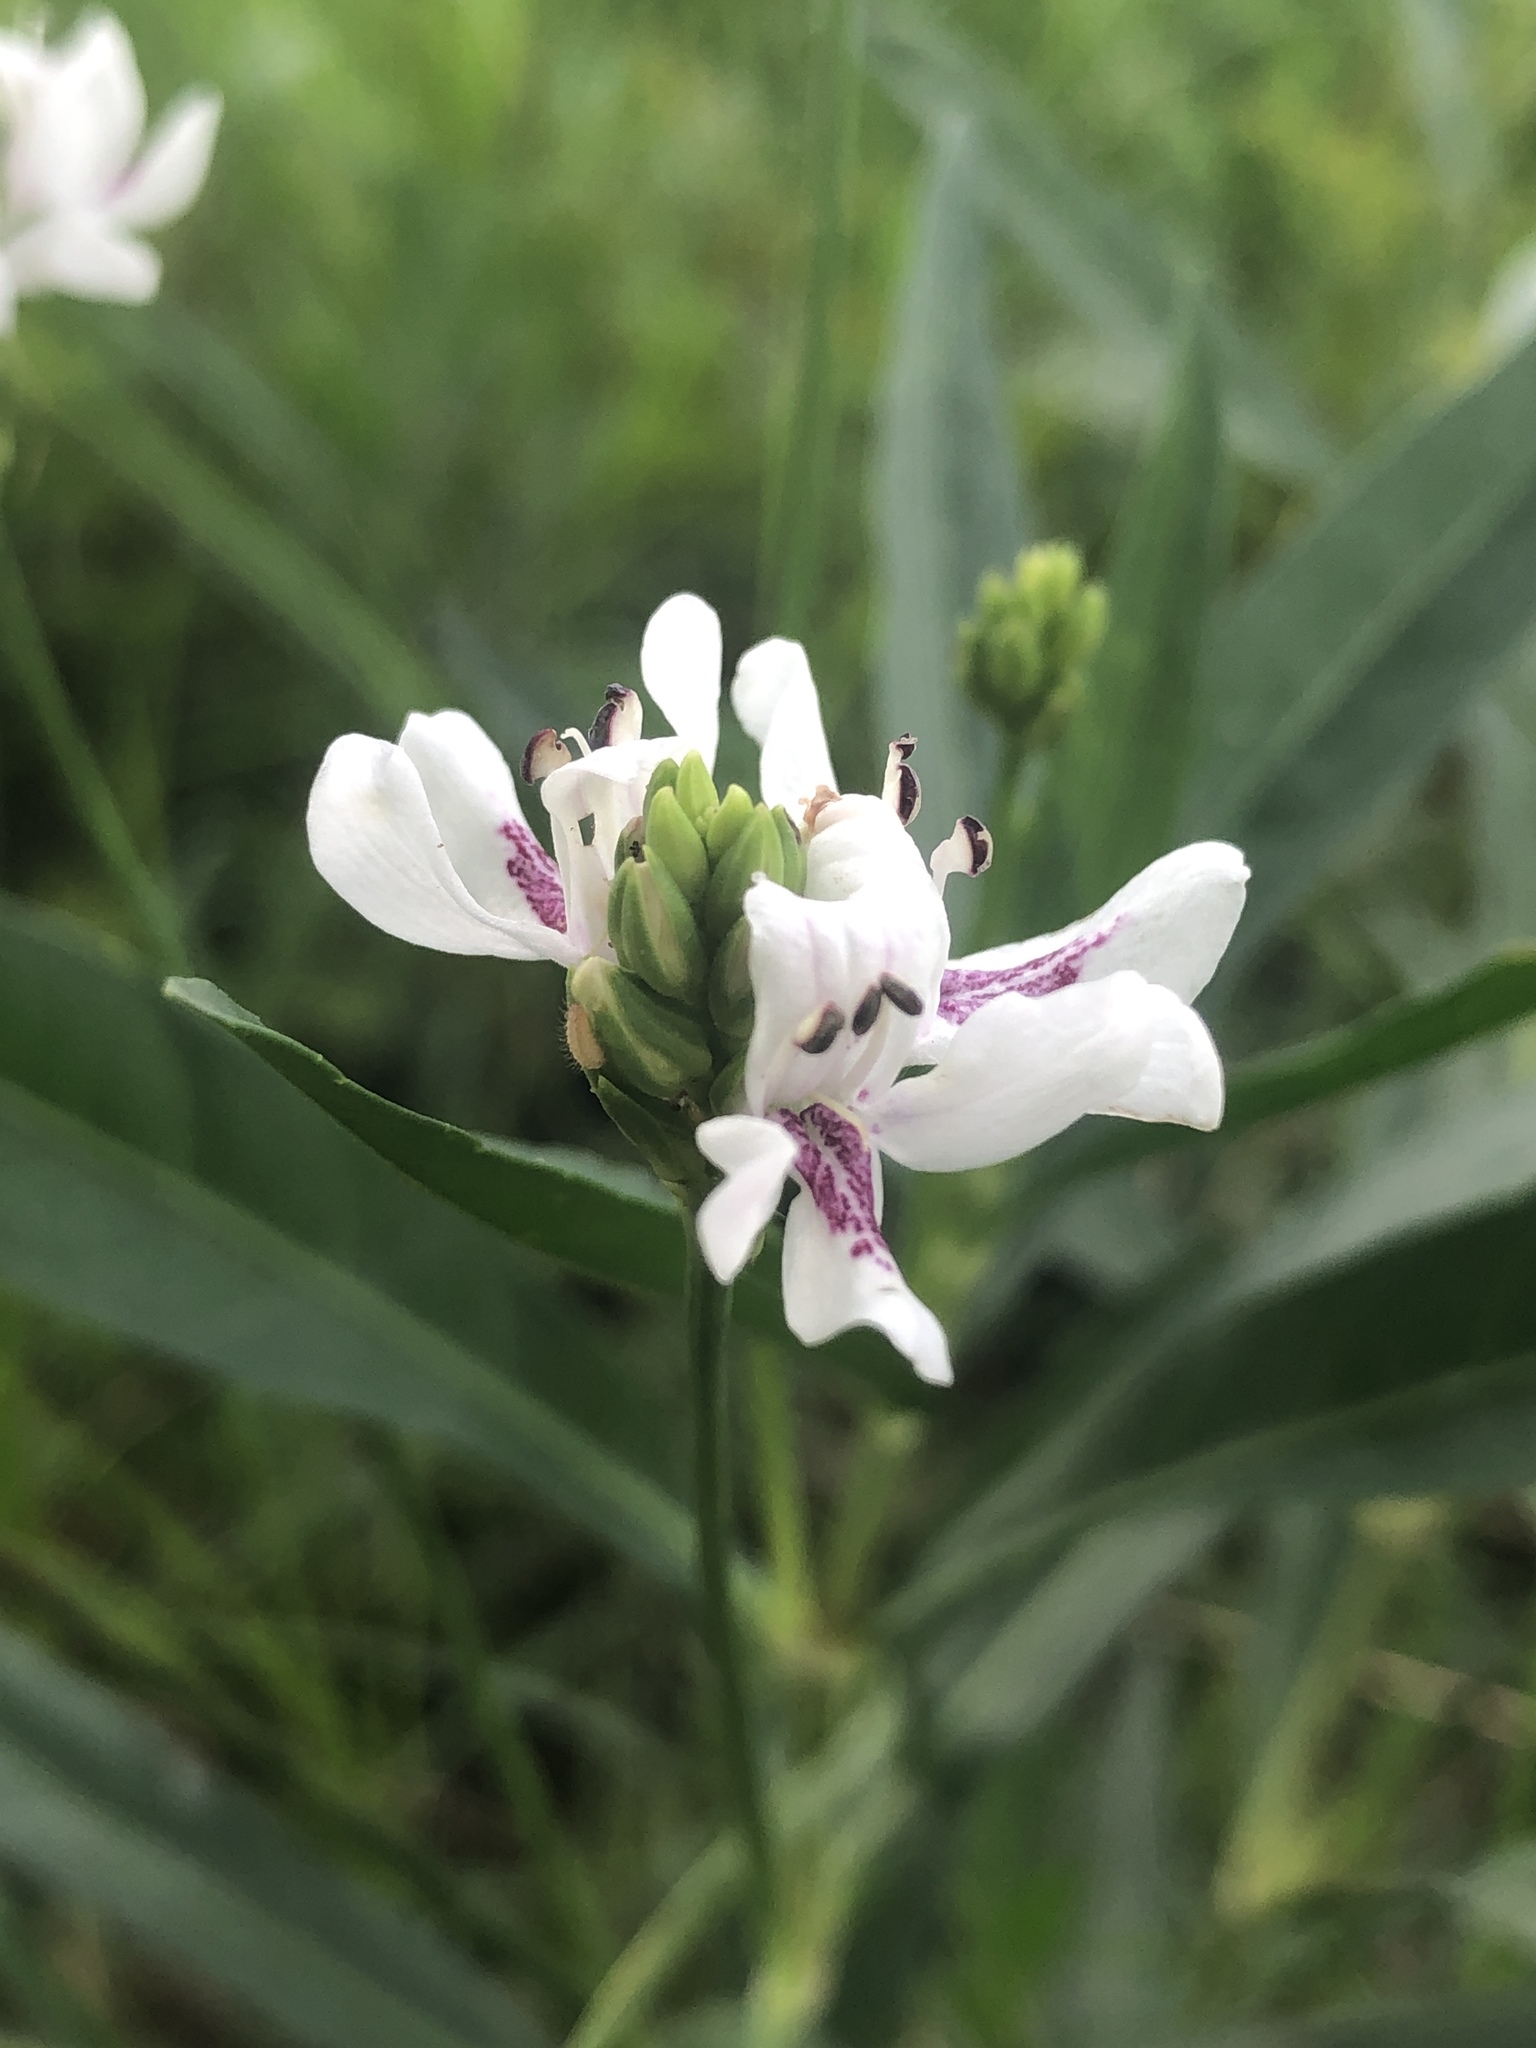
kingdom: Plantae
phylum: Tracheophyta
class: Magnoliopsida
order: Lamiales
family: Acanthaceae
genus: Dianthera
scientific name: Dianthera americana
